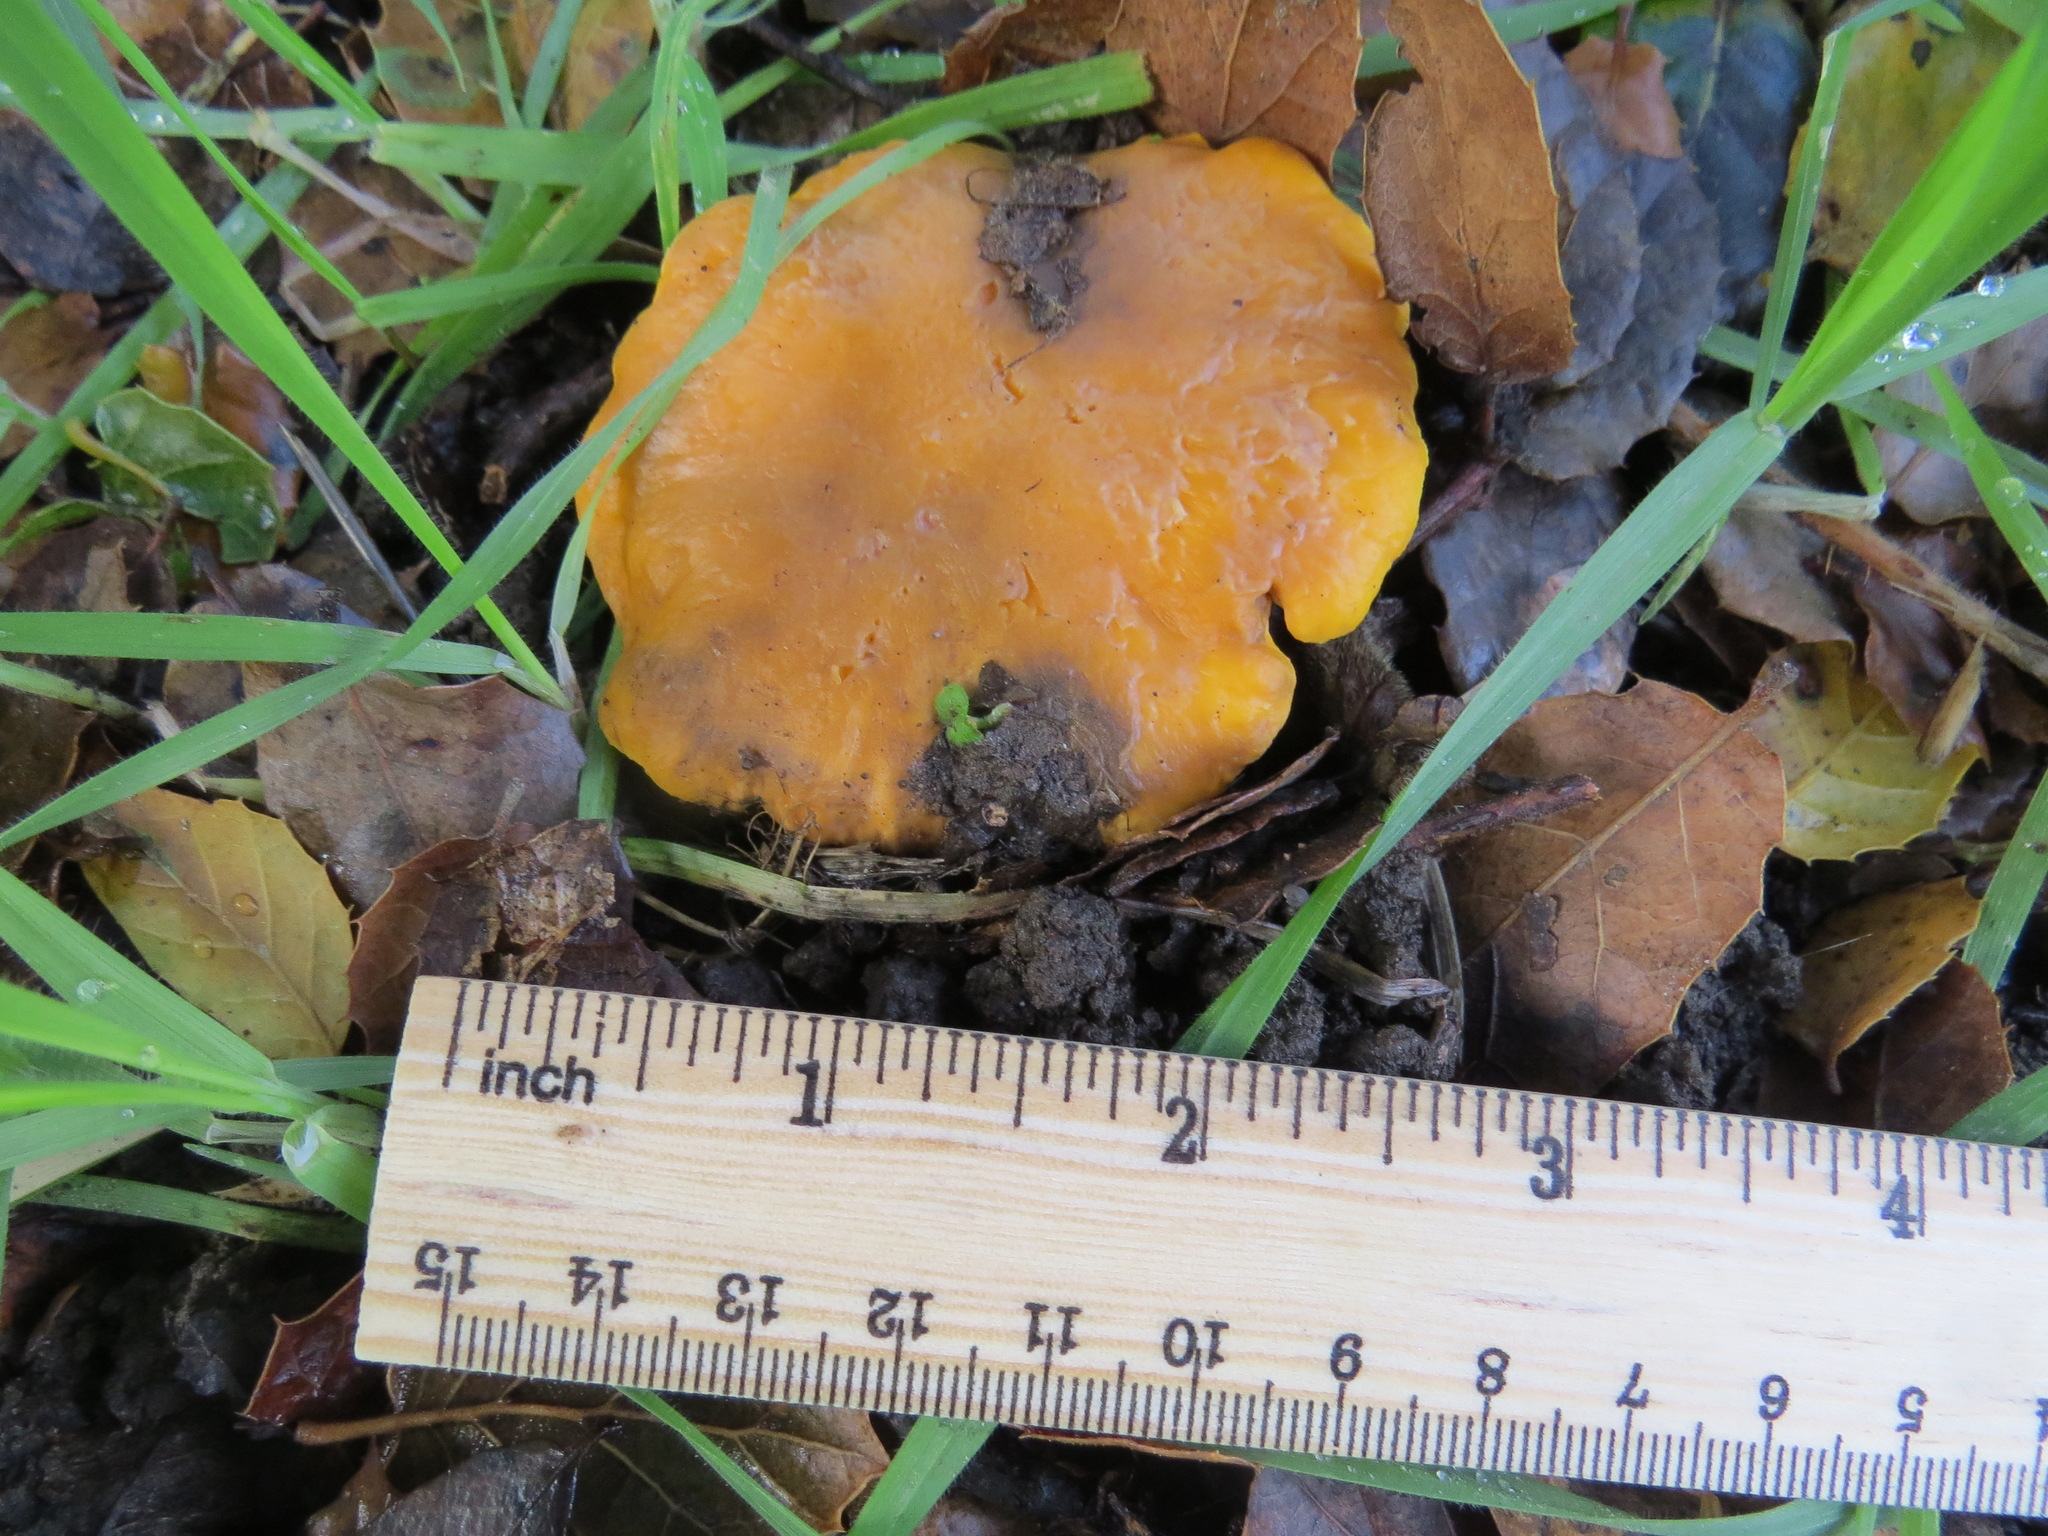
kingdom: Fungi
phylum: Basidiomycota
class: Agaricomycetes
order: Cantharellales
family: Hydnaceae
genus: Cantharellus
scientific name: Cantharellus californicus
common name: California golden chanterelle
